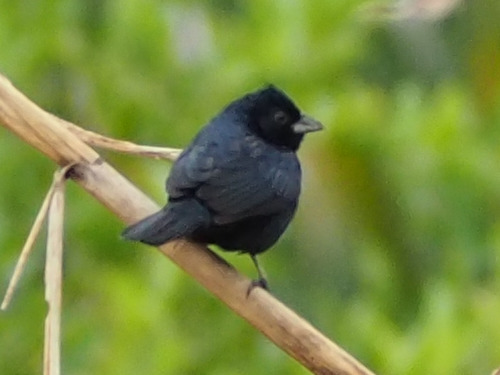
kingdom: Animalia
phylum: Chordata
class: Aves
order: Passeriformes
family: Thraupidae
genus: Volatinia
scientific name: Volatinia jacarina
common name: Blue-black grassquit
